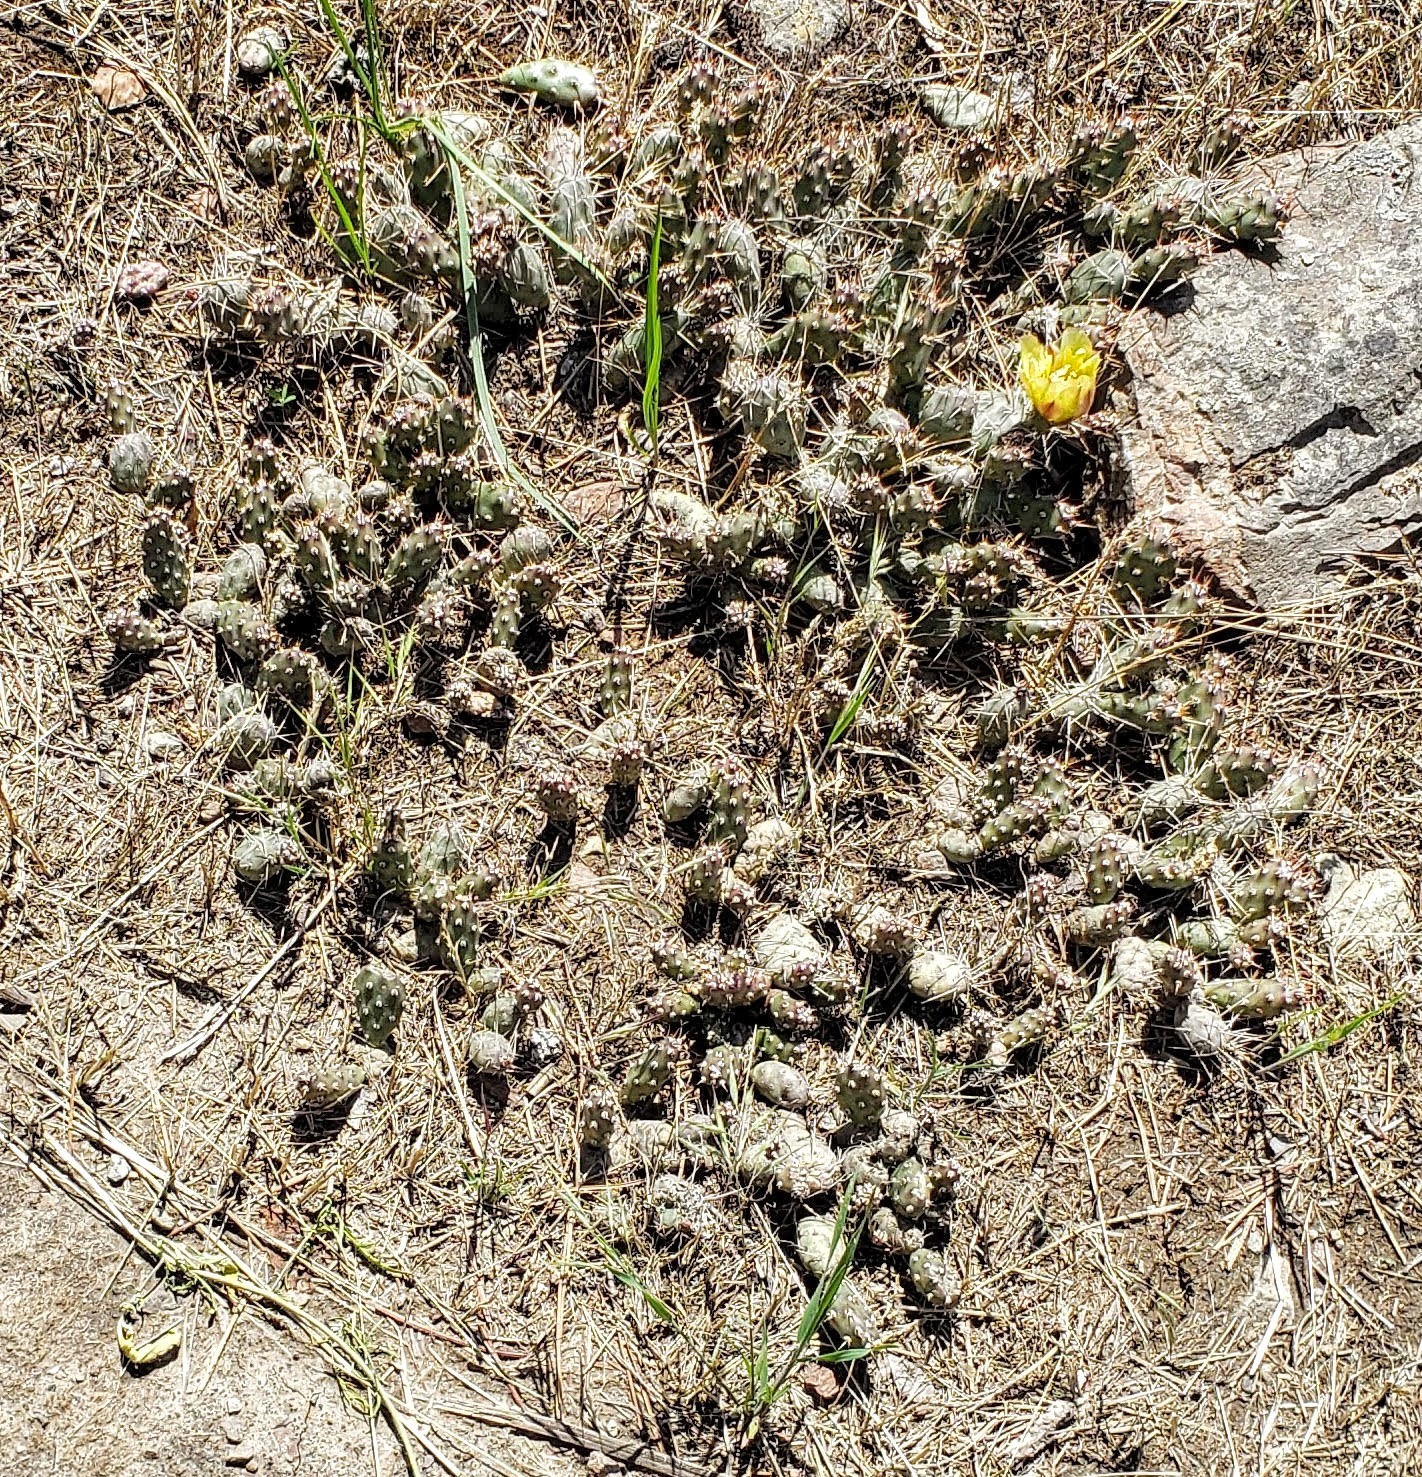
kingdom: Plantae
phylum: Tracheophyta
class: Magnoliopsida
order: Caryophyllales
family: Cactaceae
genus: Opuntia
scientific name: Opuntia fragilis
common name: Brittle cactus
